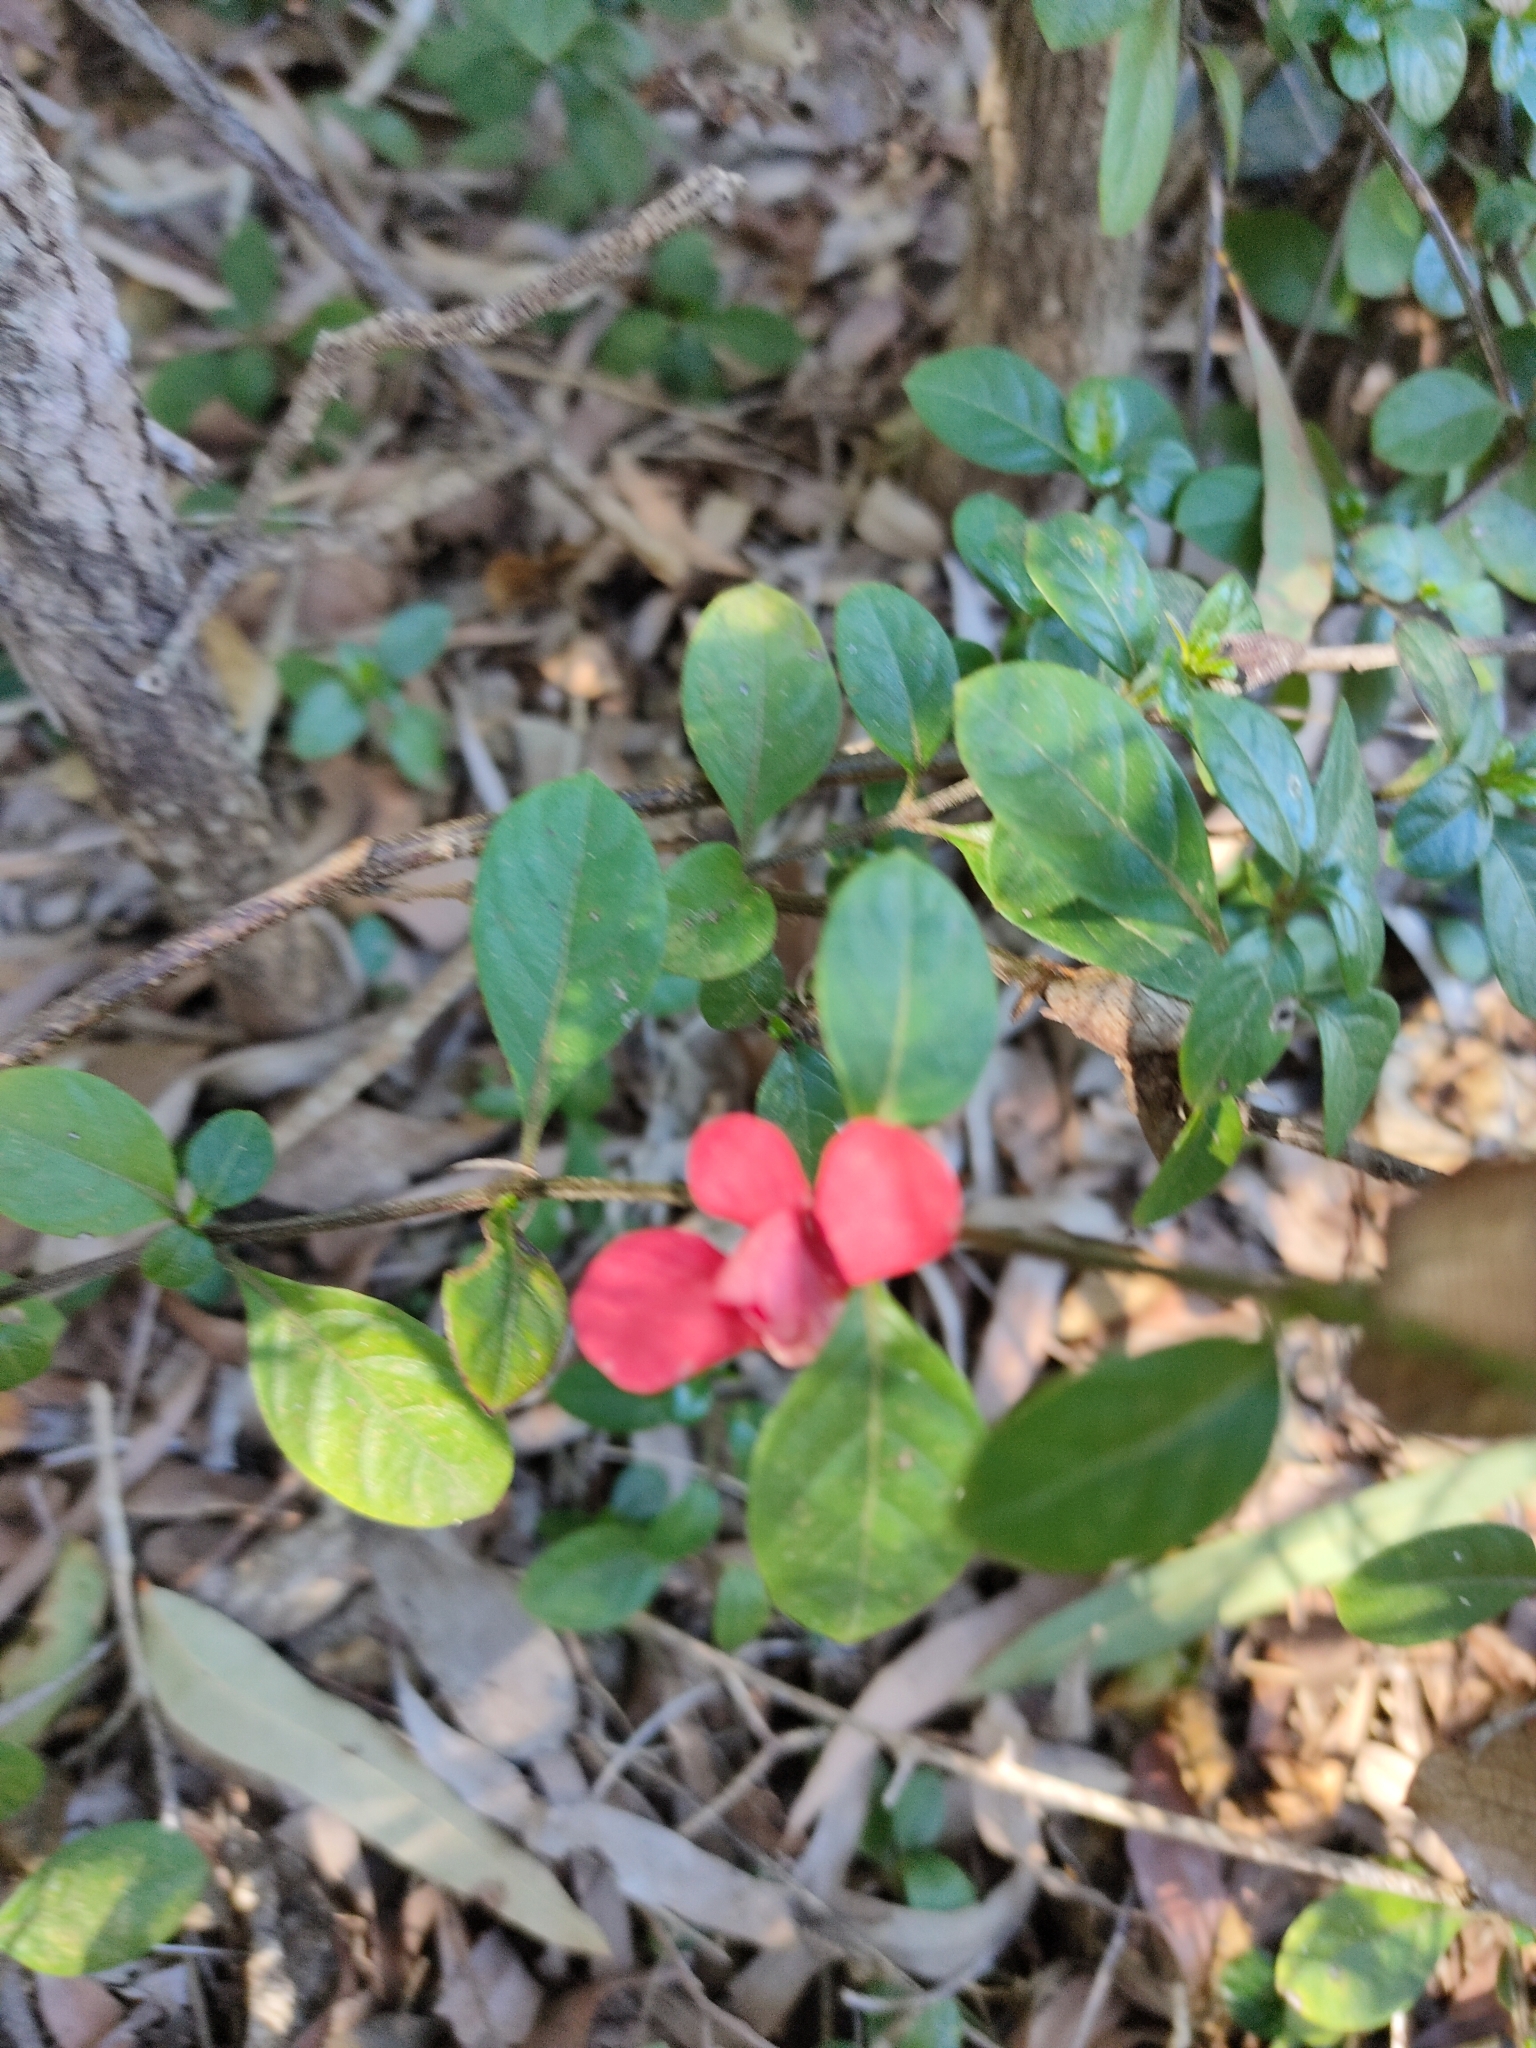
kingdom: Plantae
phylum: Tracheophyta
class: Magnoliopsida
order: Lamiales
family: Acanthaceae
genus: Barleria
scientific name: Barleria repens
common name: Pink-ruellia
